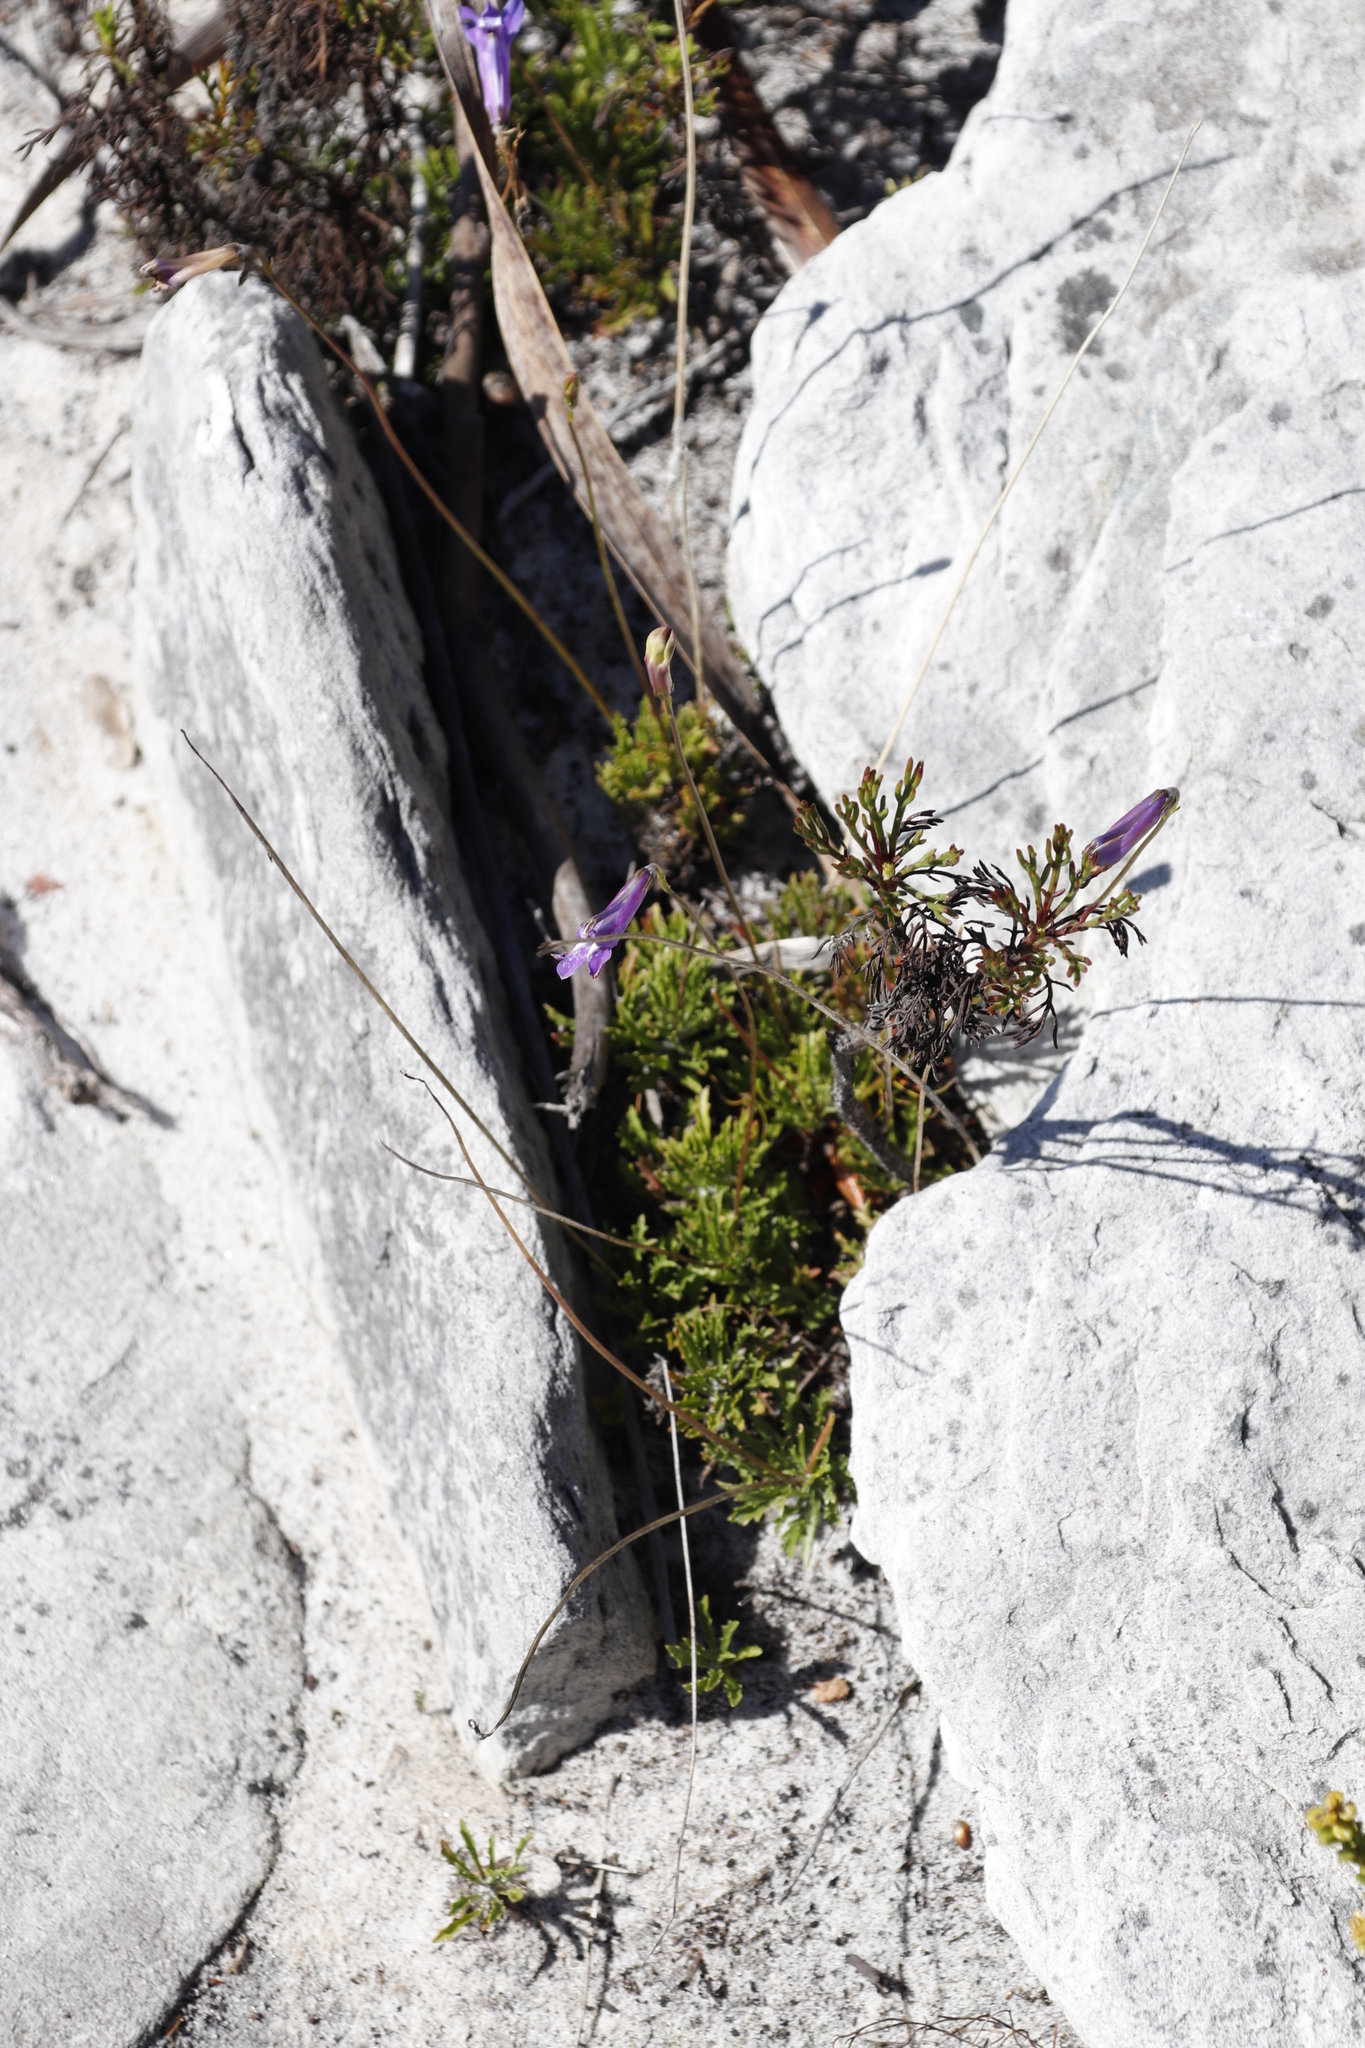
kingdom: Plantae
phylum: Tracheophyta
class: Magnoliopsida
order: Asterales
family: Campanulaceae
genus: Lobelia
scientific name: Lobelia coronopifolia
